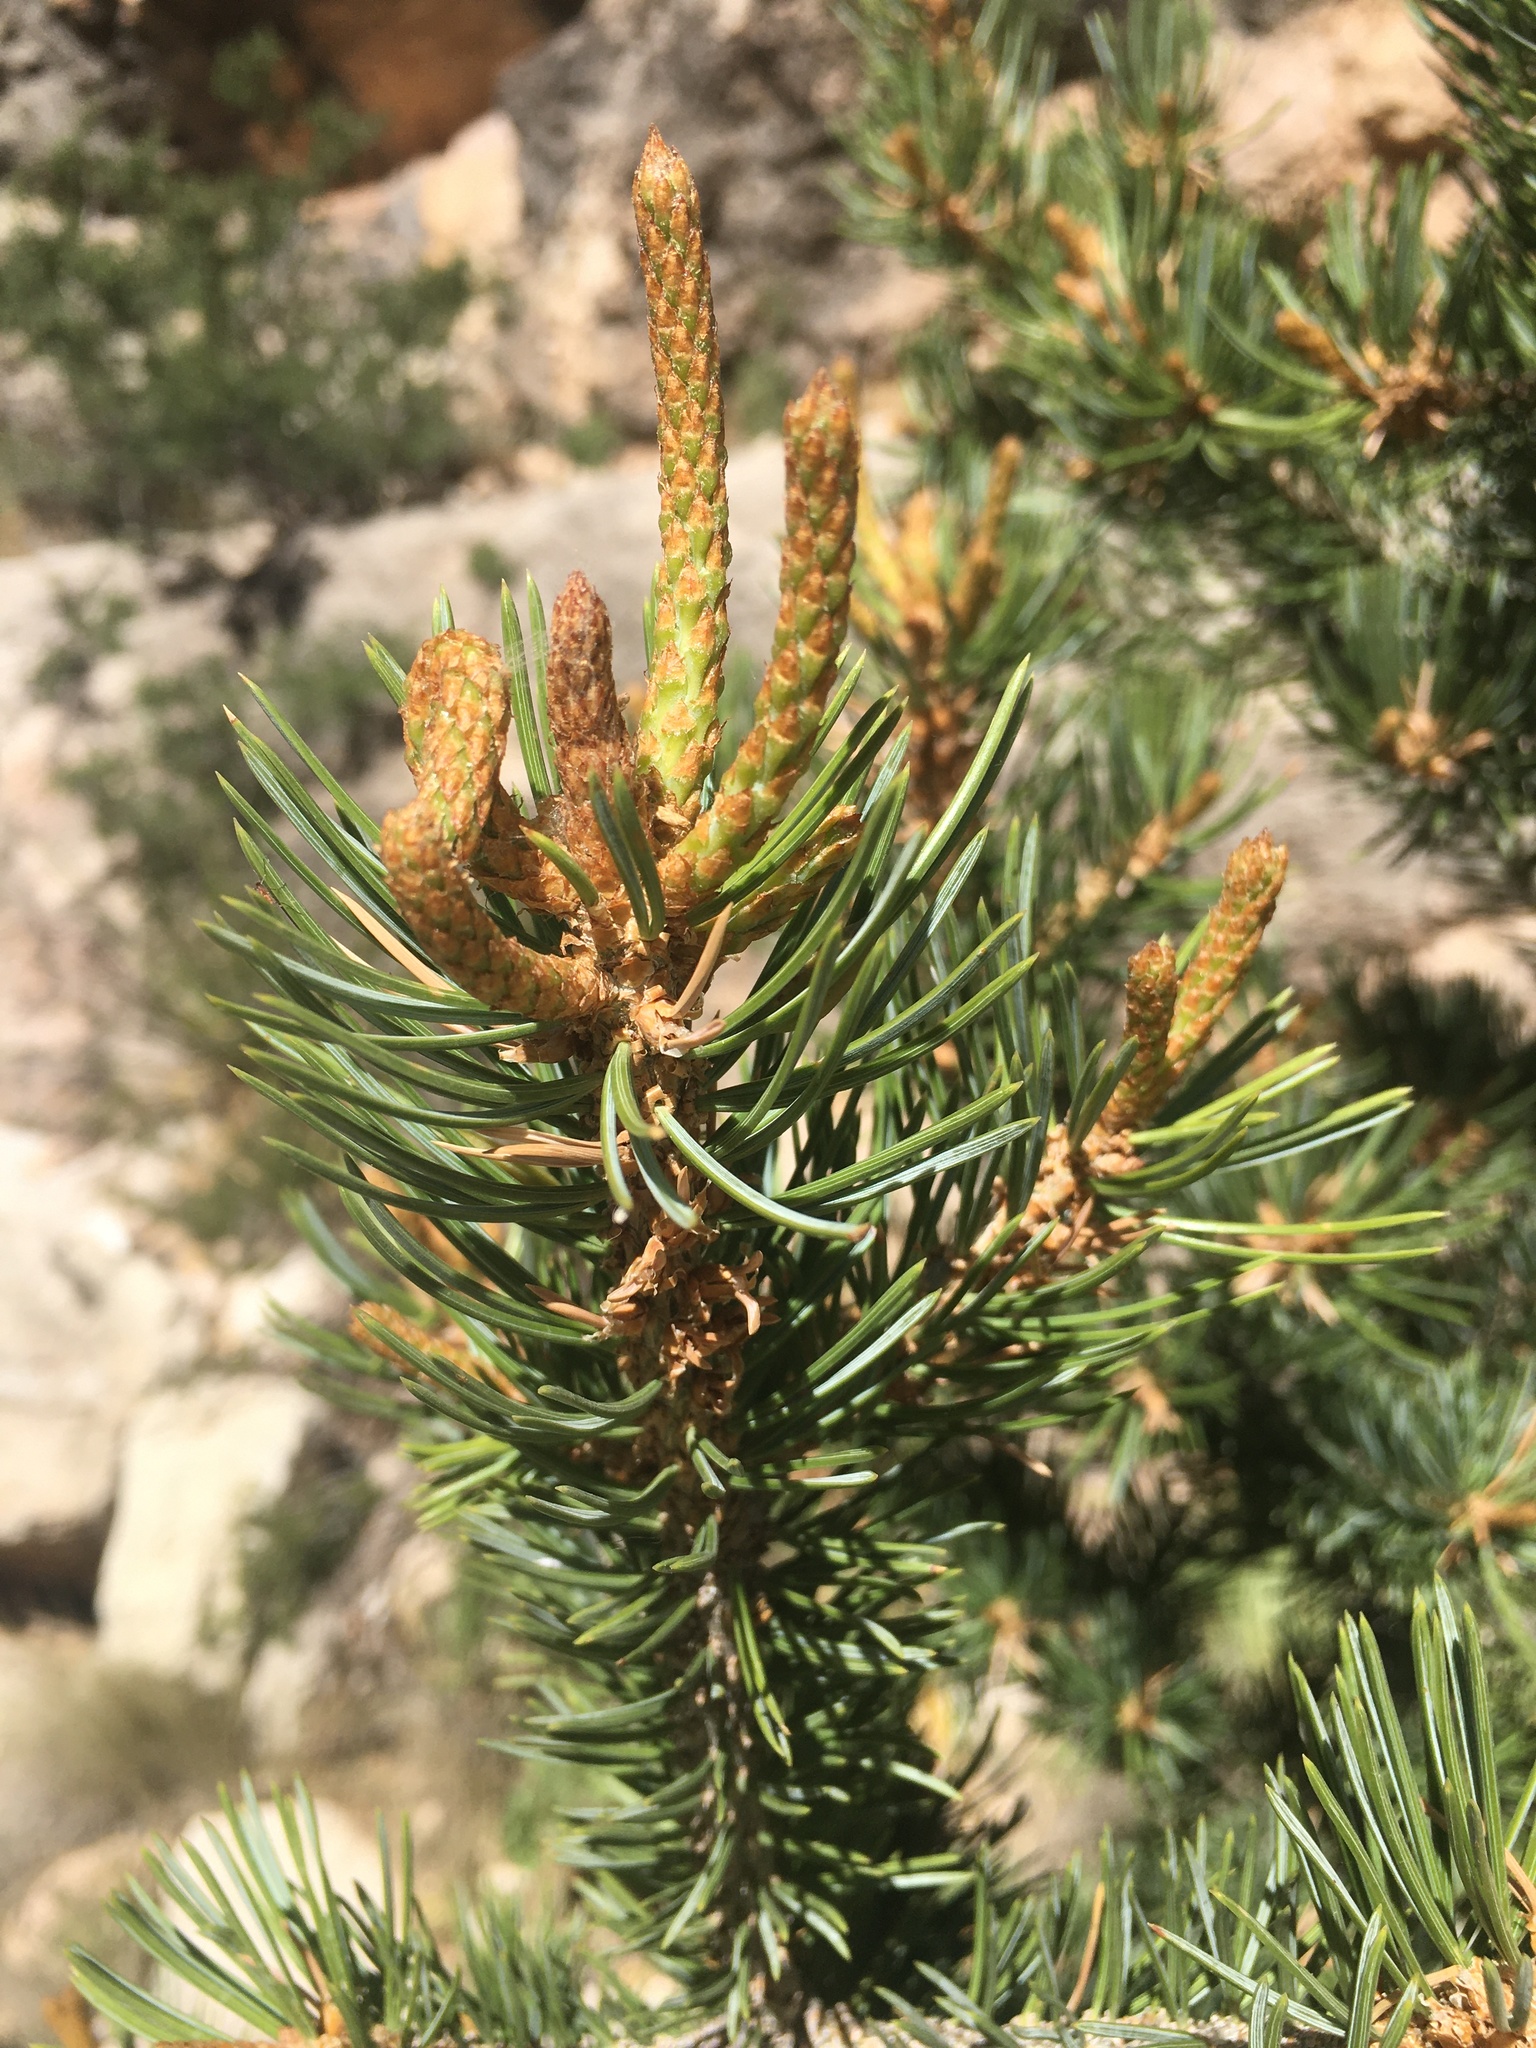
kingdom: Plantae
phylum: Tracheophyta
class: Pinopsida
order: Pinales
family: Pinaceae
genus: Pinus
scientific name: Pinus edulis
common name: Colorado pinyon
